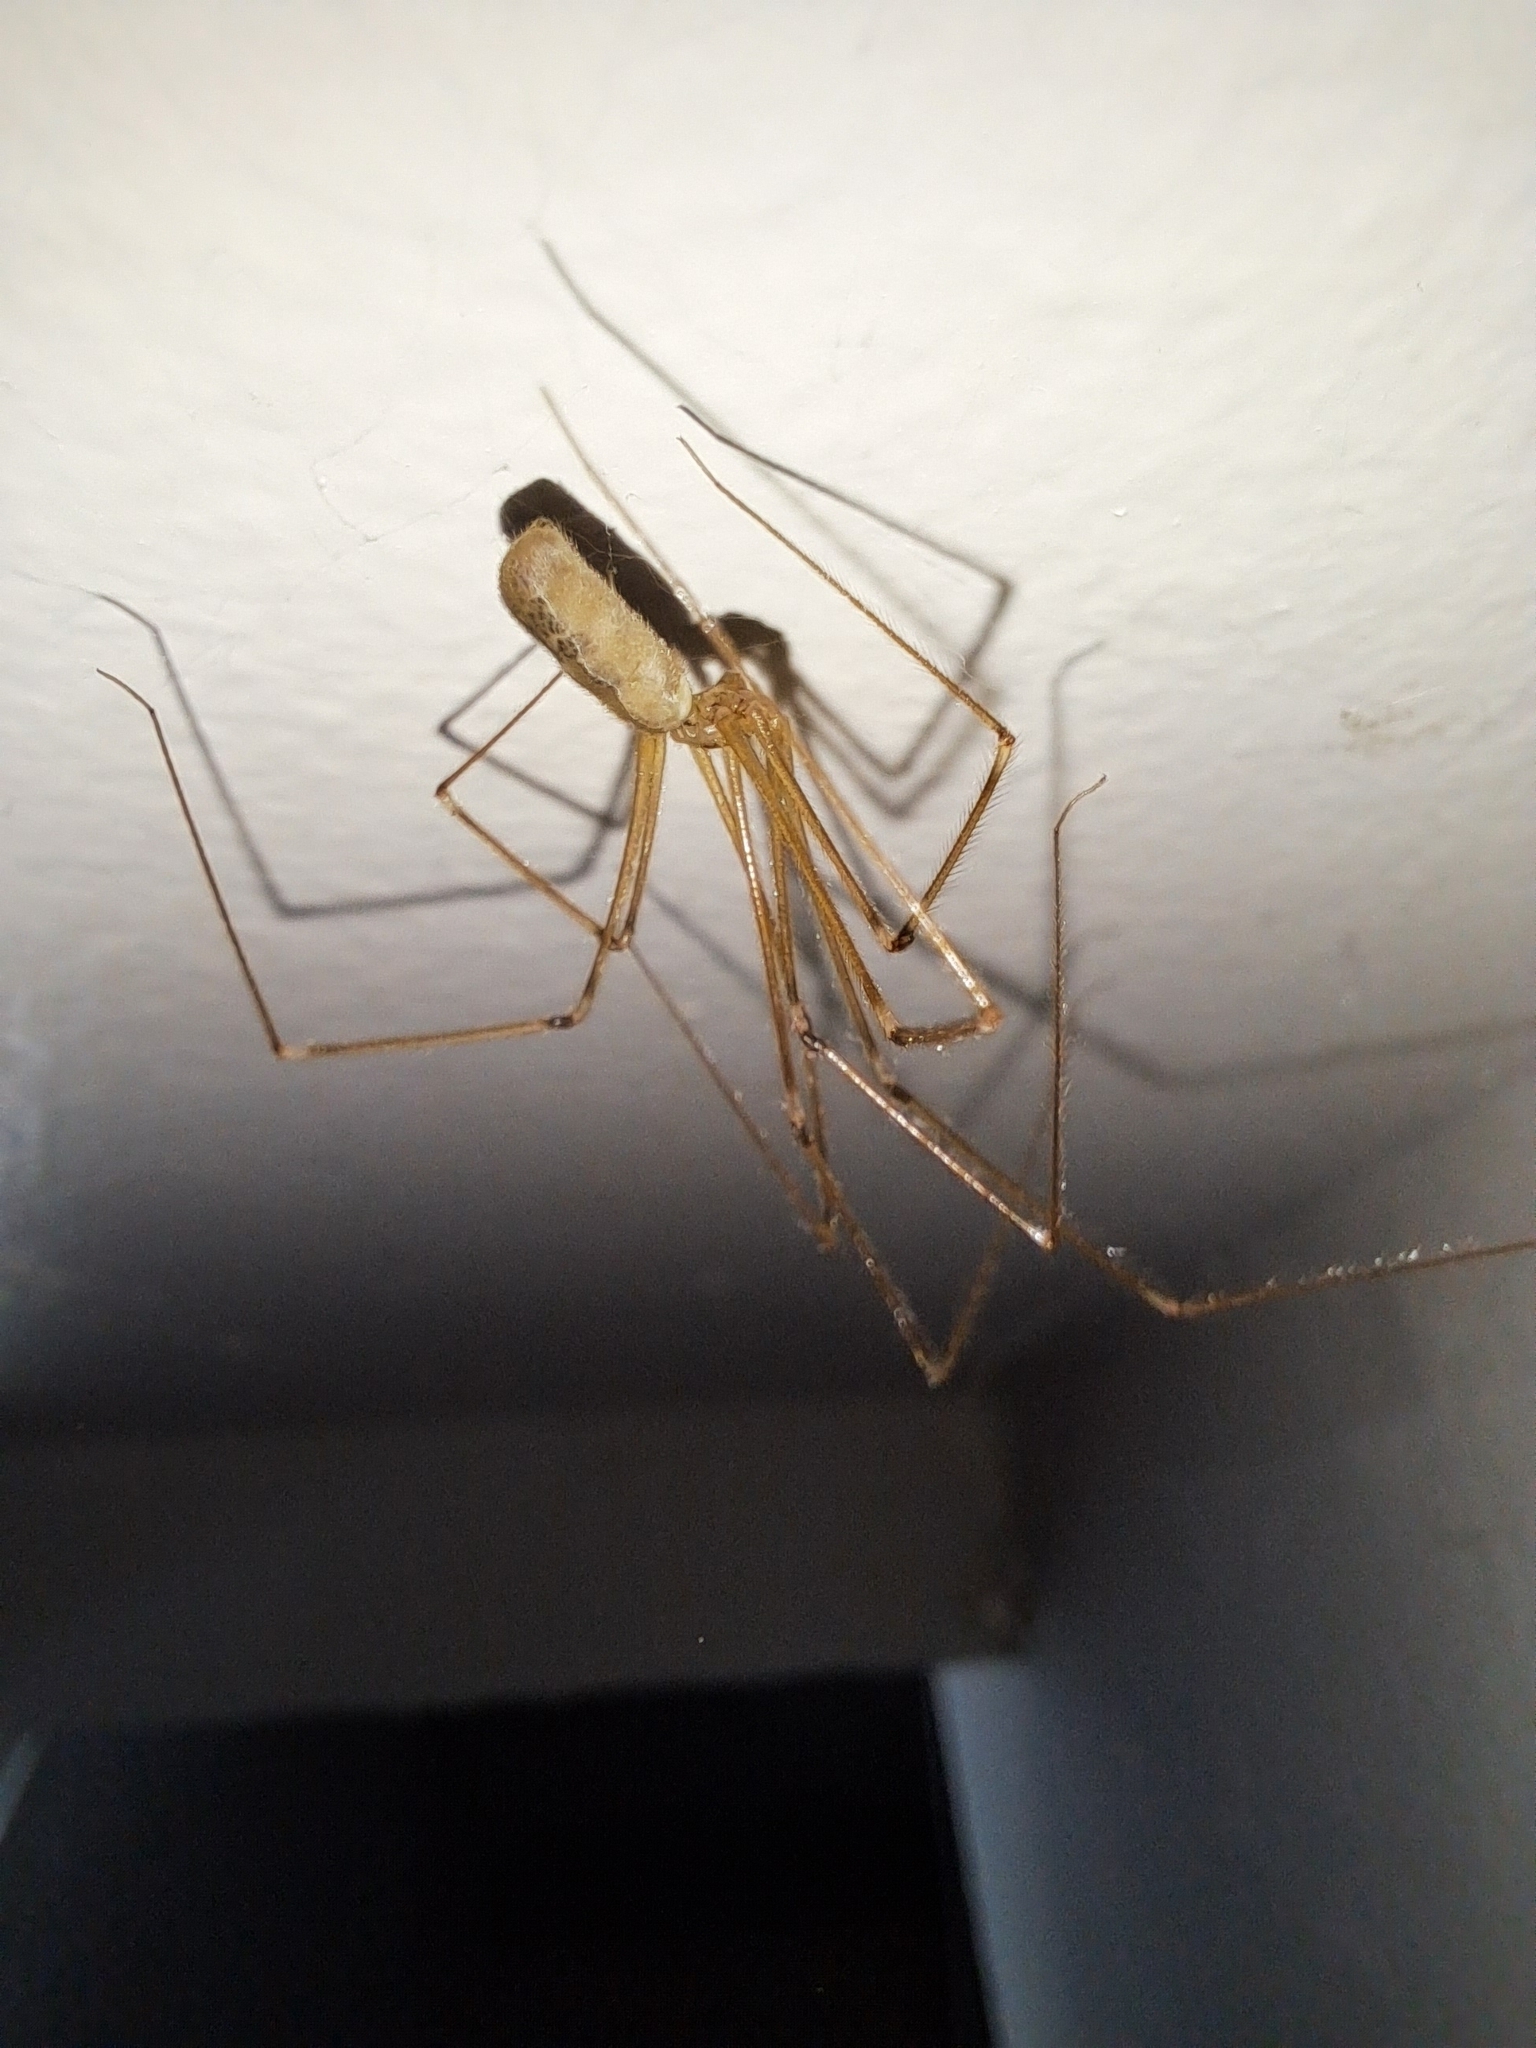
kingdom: Animalia
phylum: Arthropoda
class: Arachnida
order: Araneae
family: Pholcidae
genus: Pholcus
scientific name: Pholcus phalangioides
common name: Longbodied cellar spider
